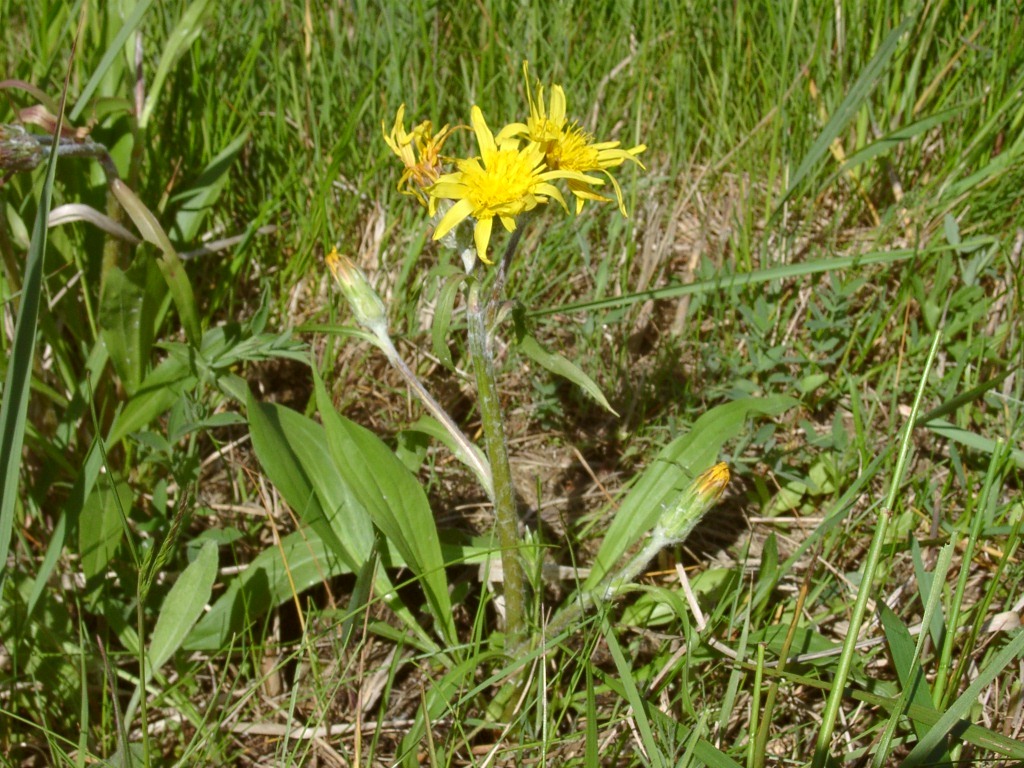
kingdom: Plantae
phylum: Tracheophyta
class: Magnoliopsida
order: Asterales
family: Asteraceae
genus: Scorzonera
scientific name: Scorzonera humilis
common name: Viper's-grass
